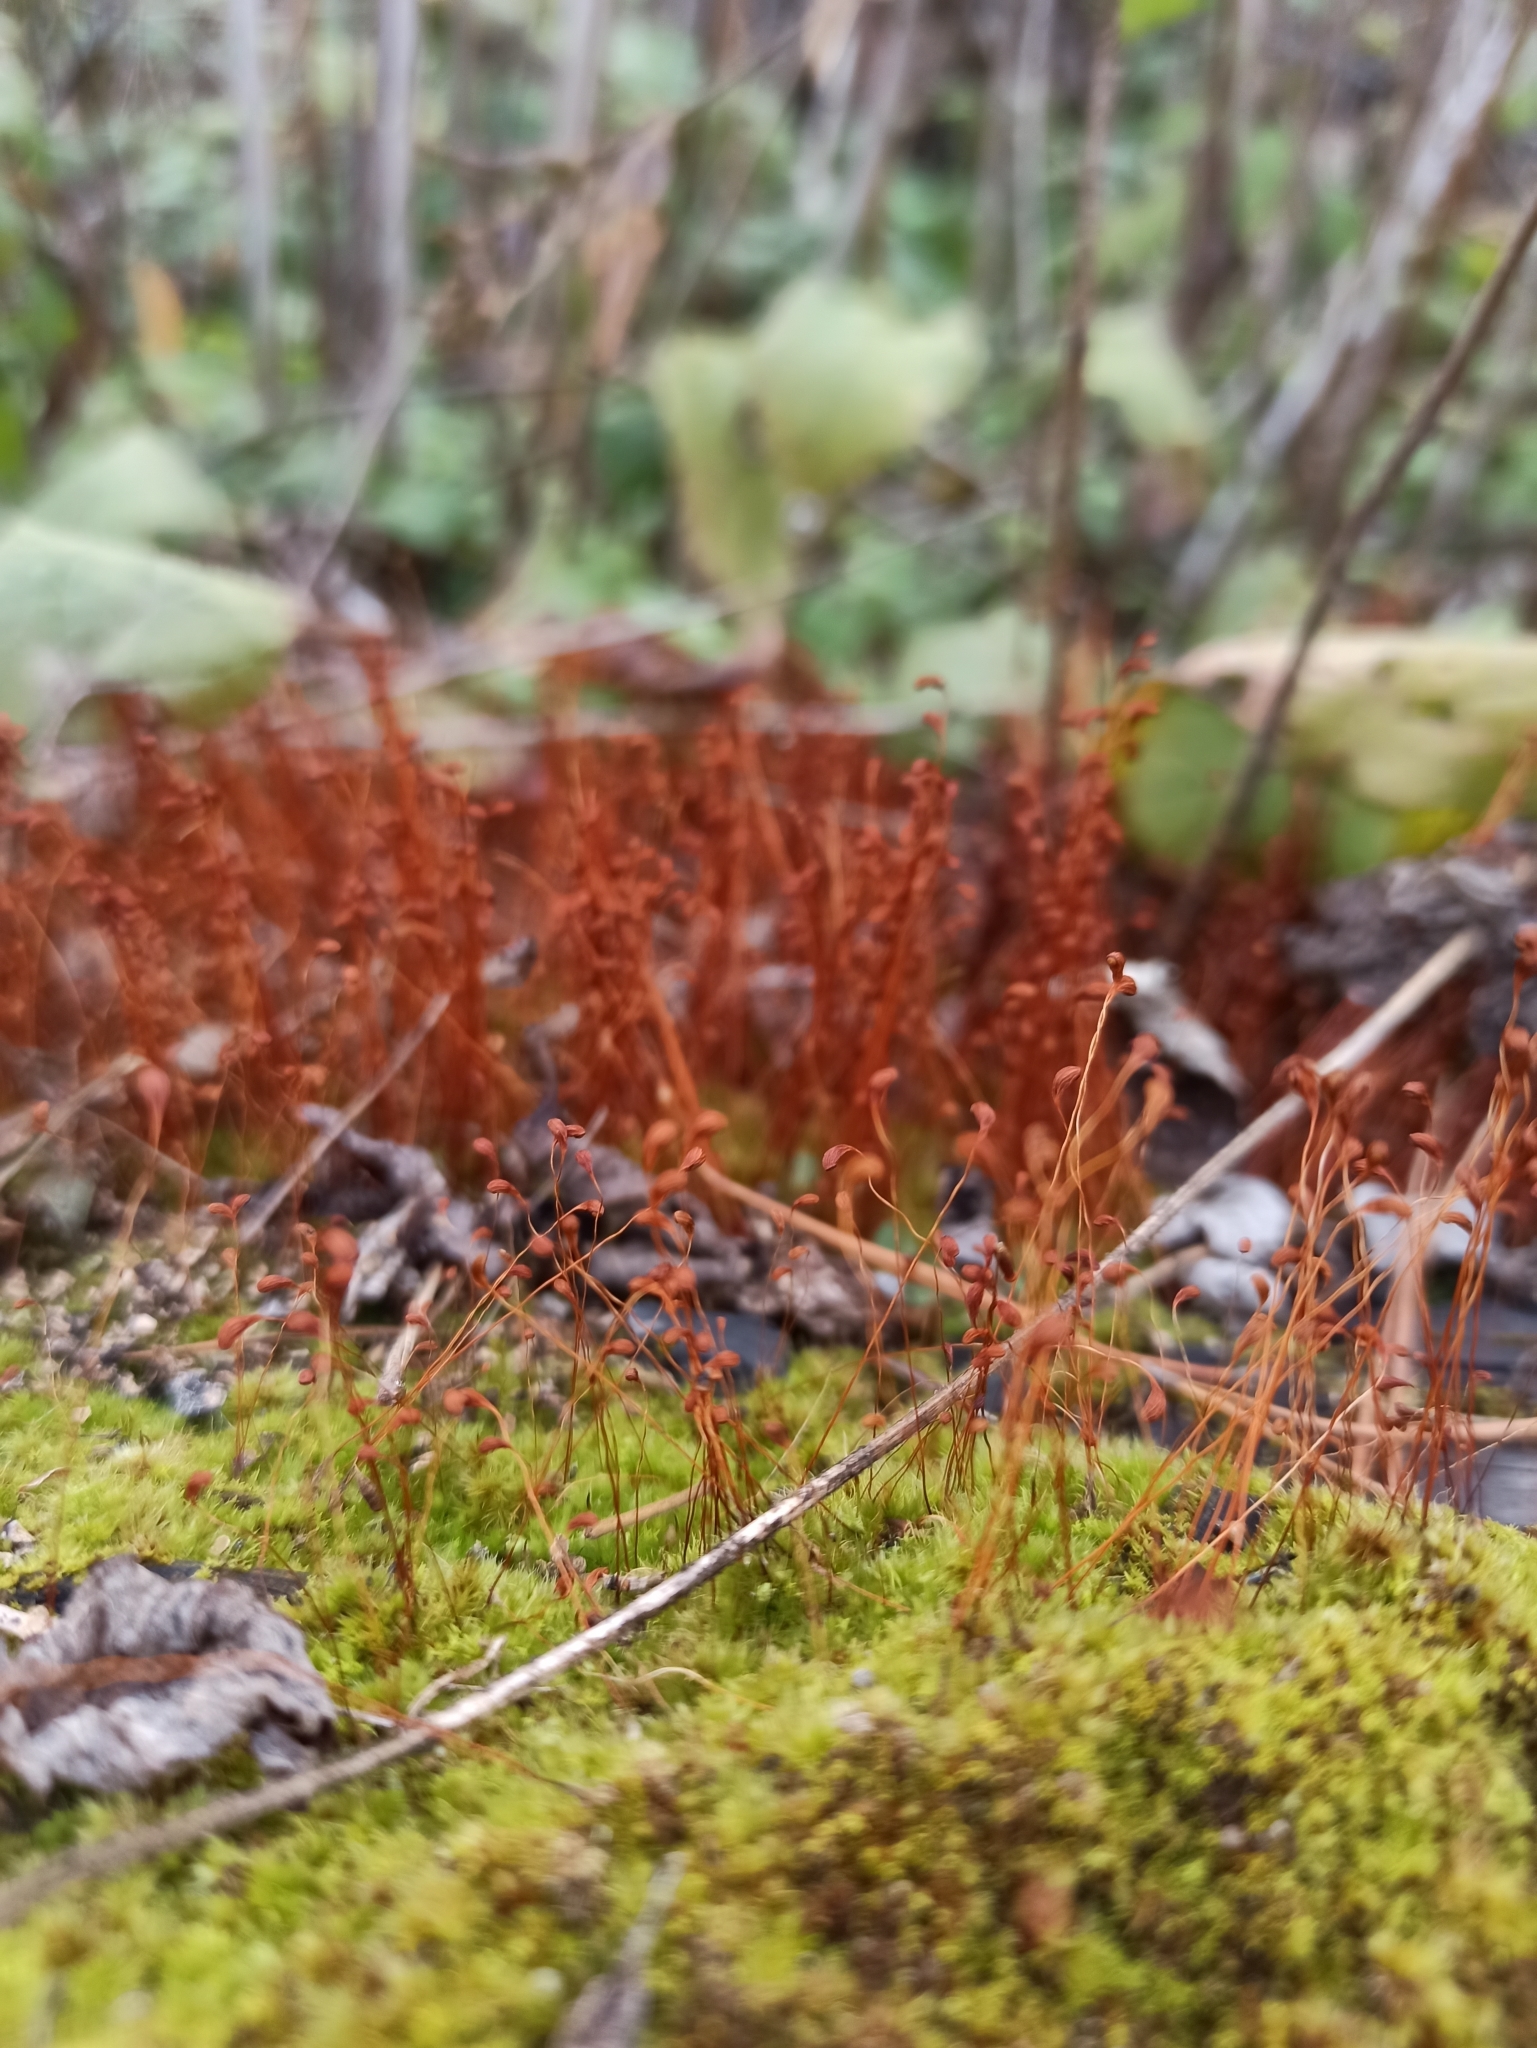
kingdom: Plantae
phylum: Bryophyta
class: Bryopsida
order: Funariales
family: Funariaceae
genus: Funaria
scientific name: Funaria hygrometrica
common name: Common cord moss
